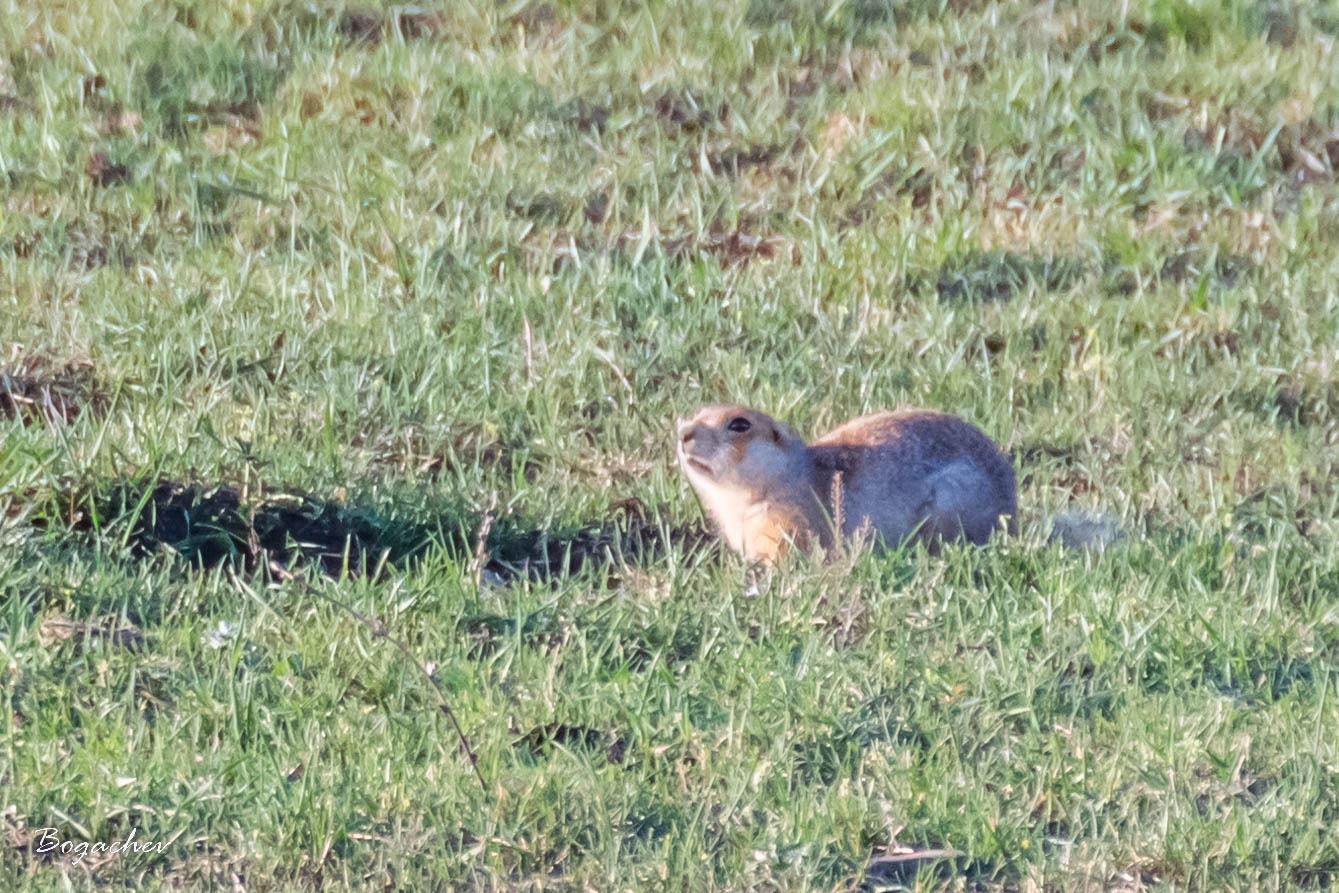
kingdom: Animalia
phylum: Chordata
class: Mammalia
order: Rodentia
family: Sciuridae
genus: Spermophilus
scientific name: Spermophilus major
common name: Russet ground squirrel
